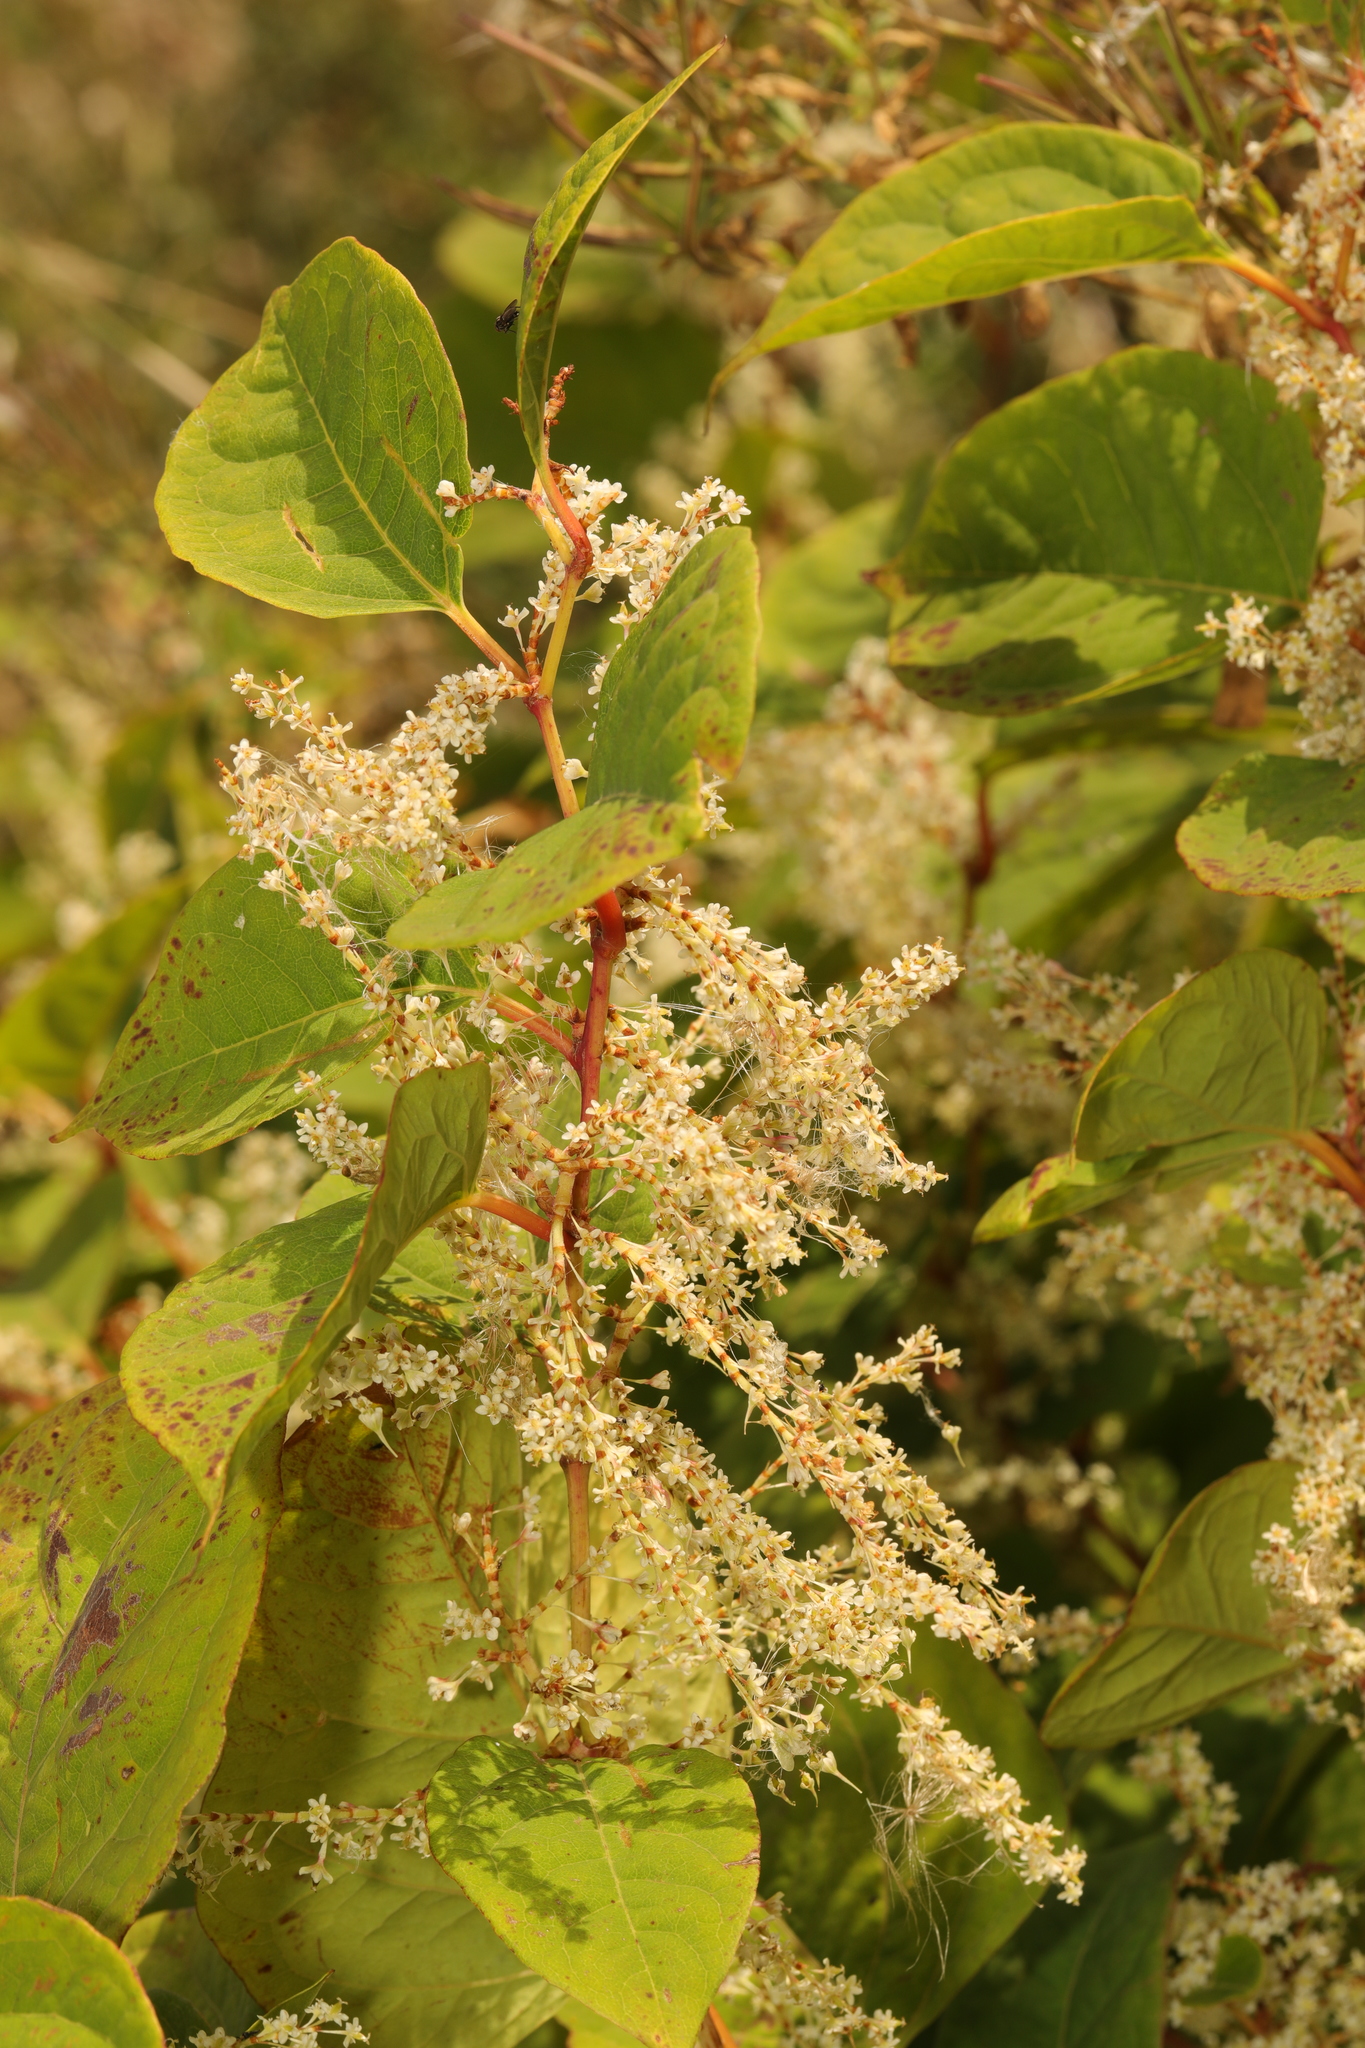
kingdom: Plantae
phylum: Tracheophyta
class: Magnoliopsida
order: Caryophyllales
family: Polygonaceae
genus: Reynoutria
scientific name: Reynoutria japonica
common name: Japanese knotweed
